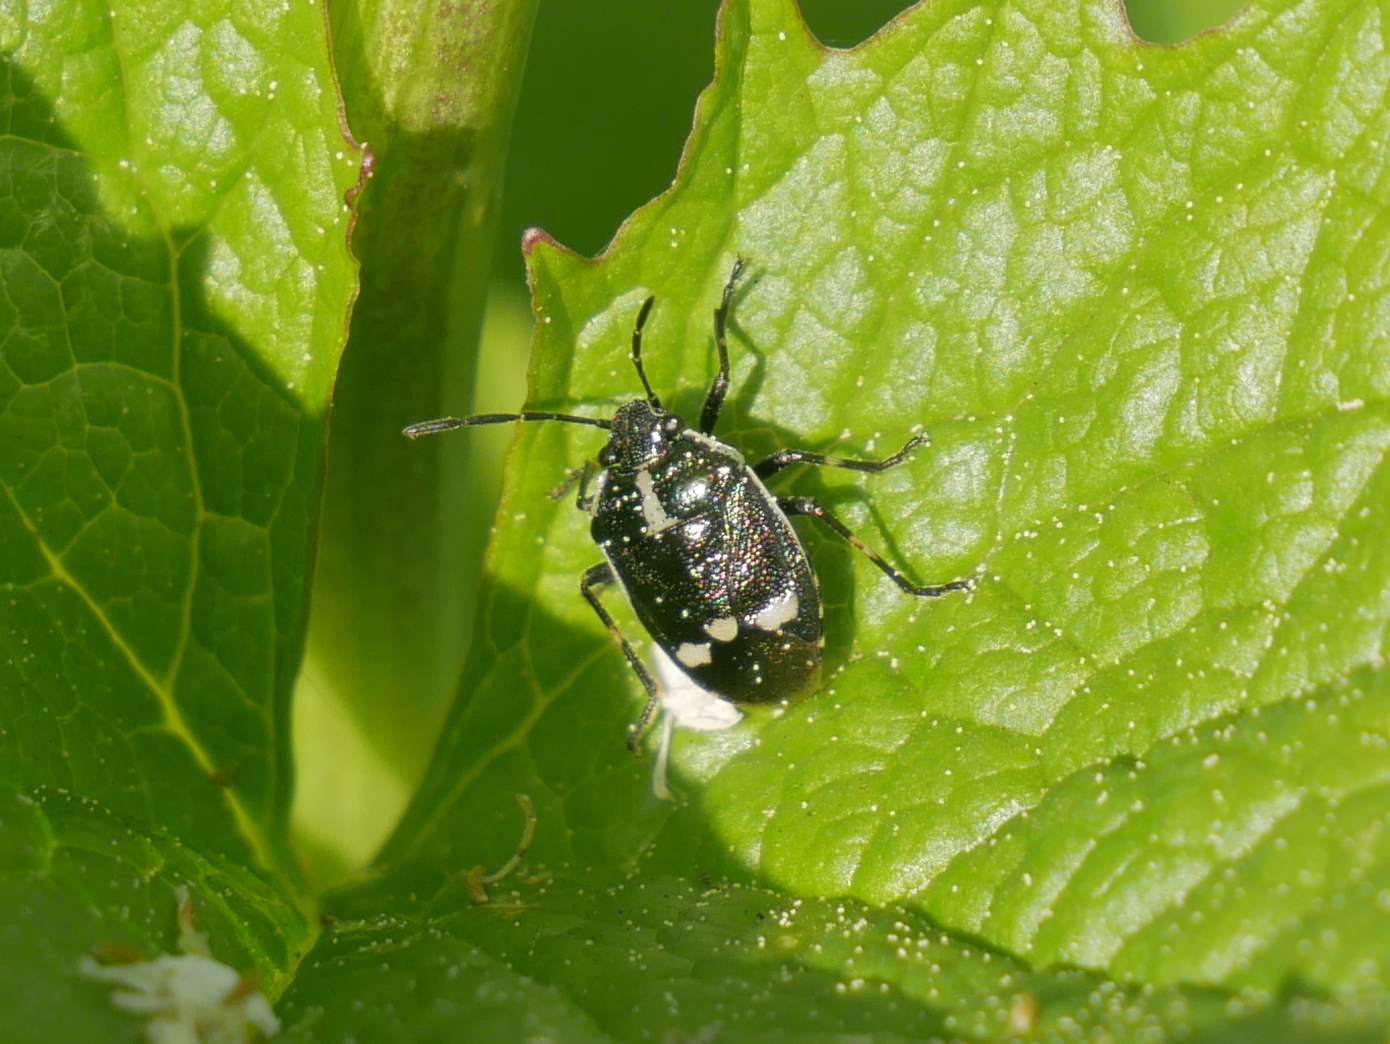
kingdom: Animalia
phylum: Arthropoda
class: Insecta
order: Hemiptera
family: Pentatomidae
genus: Eurydema
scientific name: Eurydema oleracea
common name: Cabbage bug
